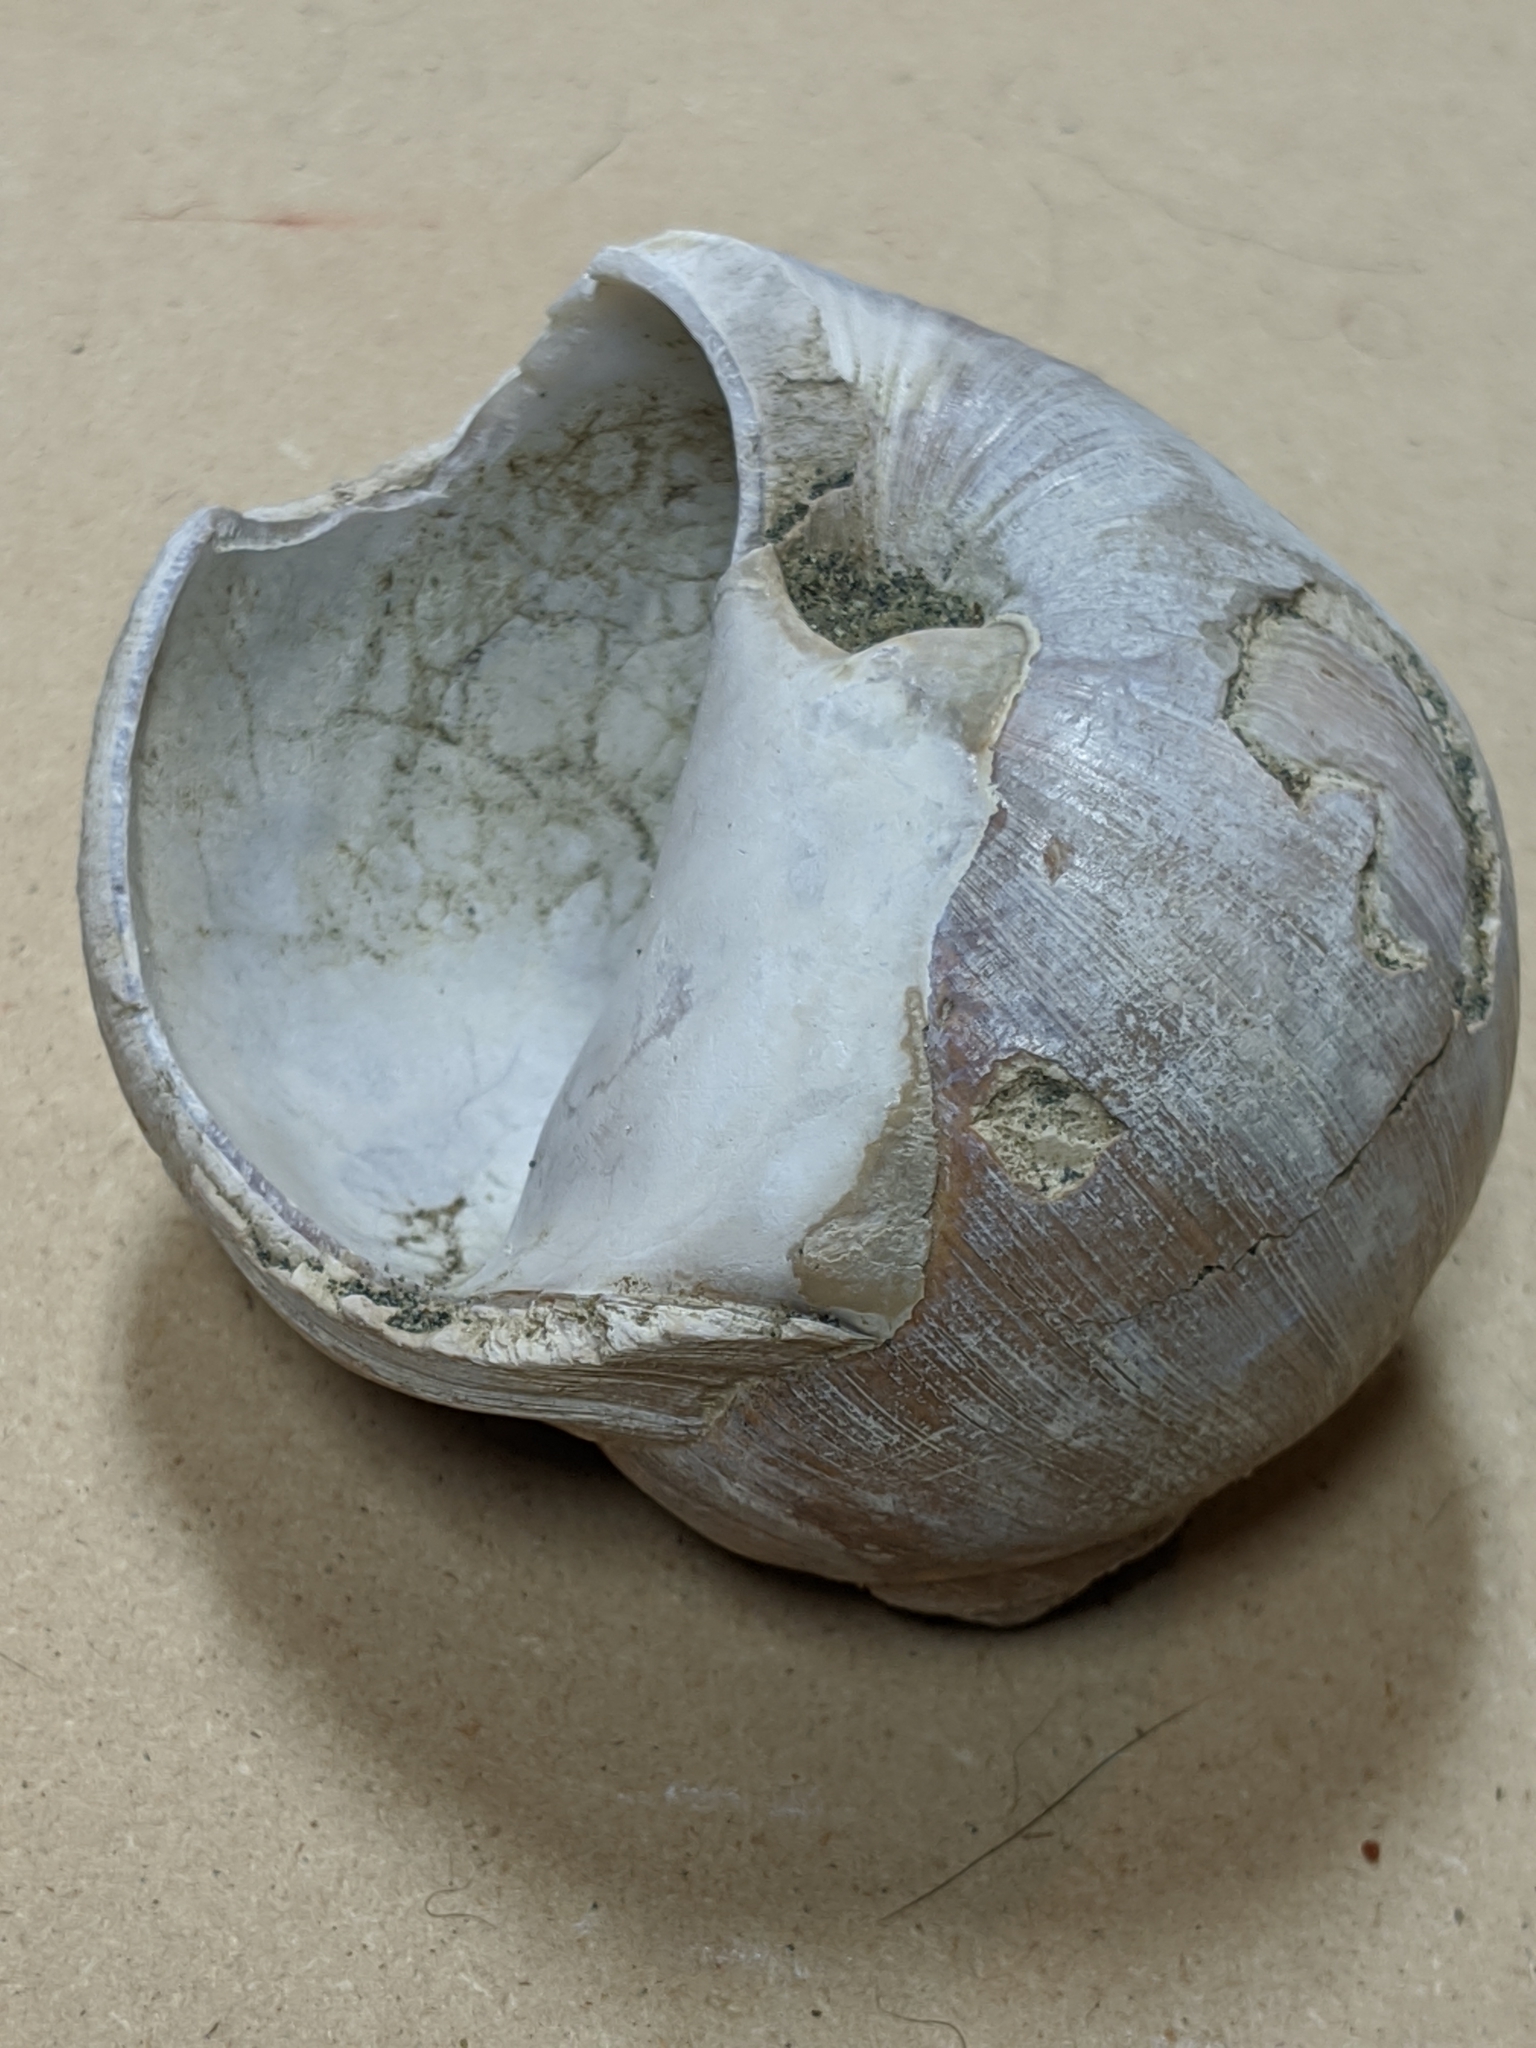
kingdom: Animalia
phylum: Mollusca
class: Gastropoda
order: Littorinimorpha
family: Naticidae
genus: Neverita
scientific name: Neverita lewisii
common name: Lewis' moonsnail
